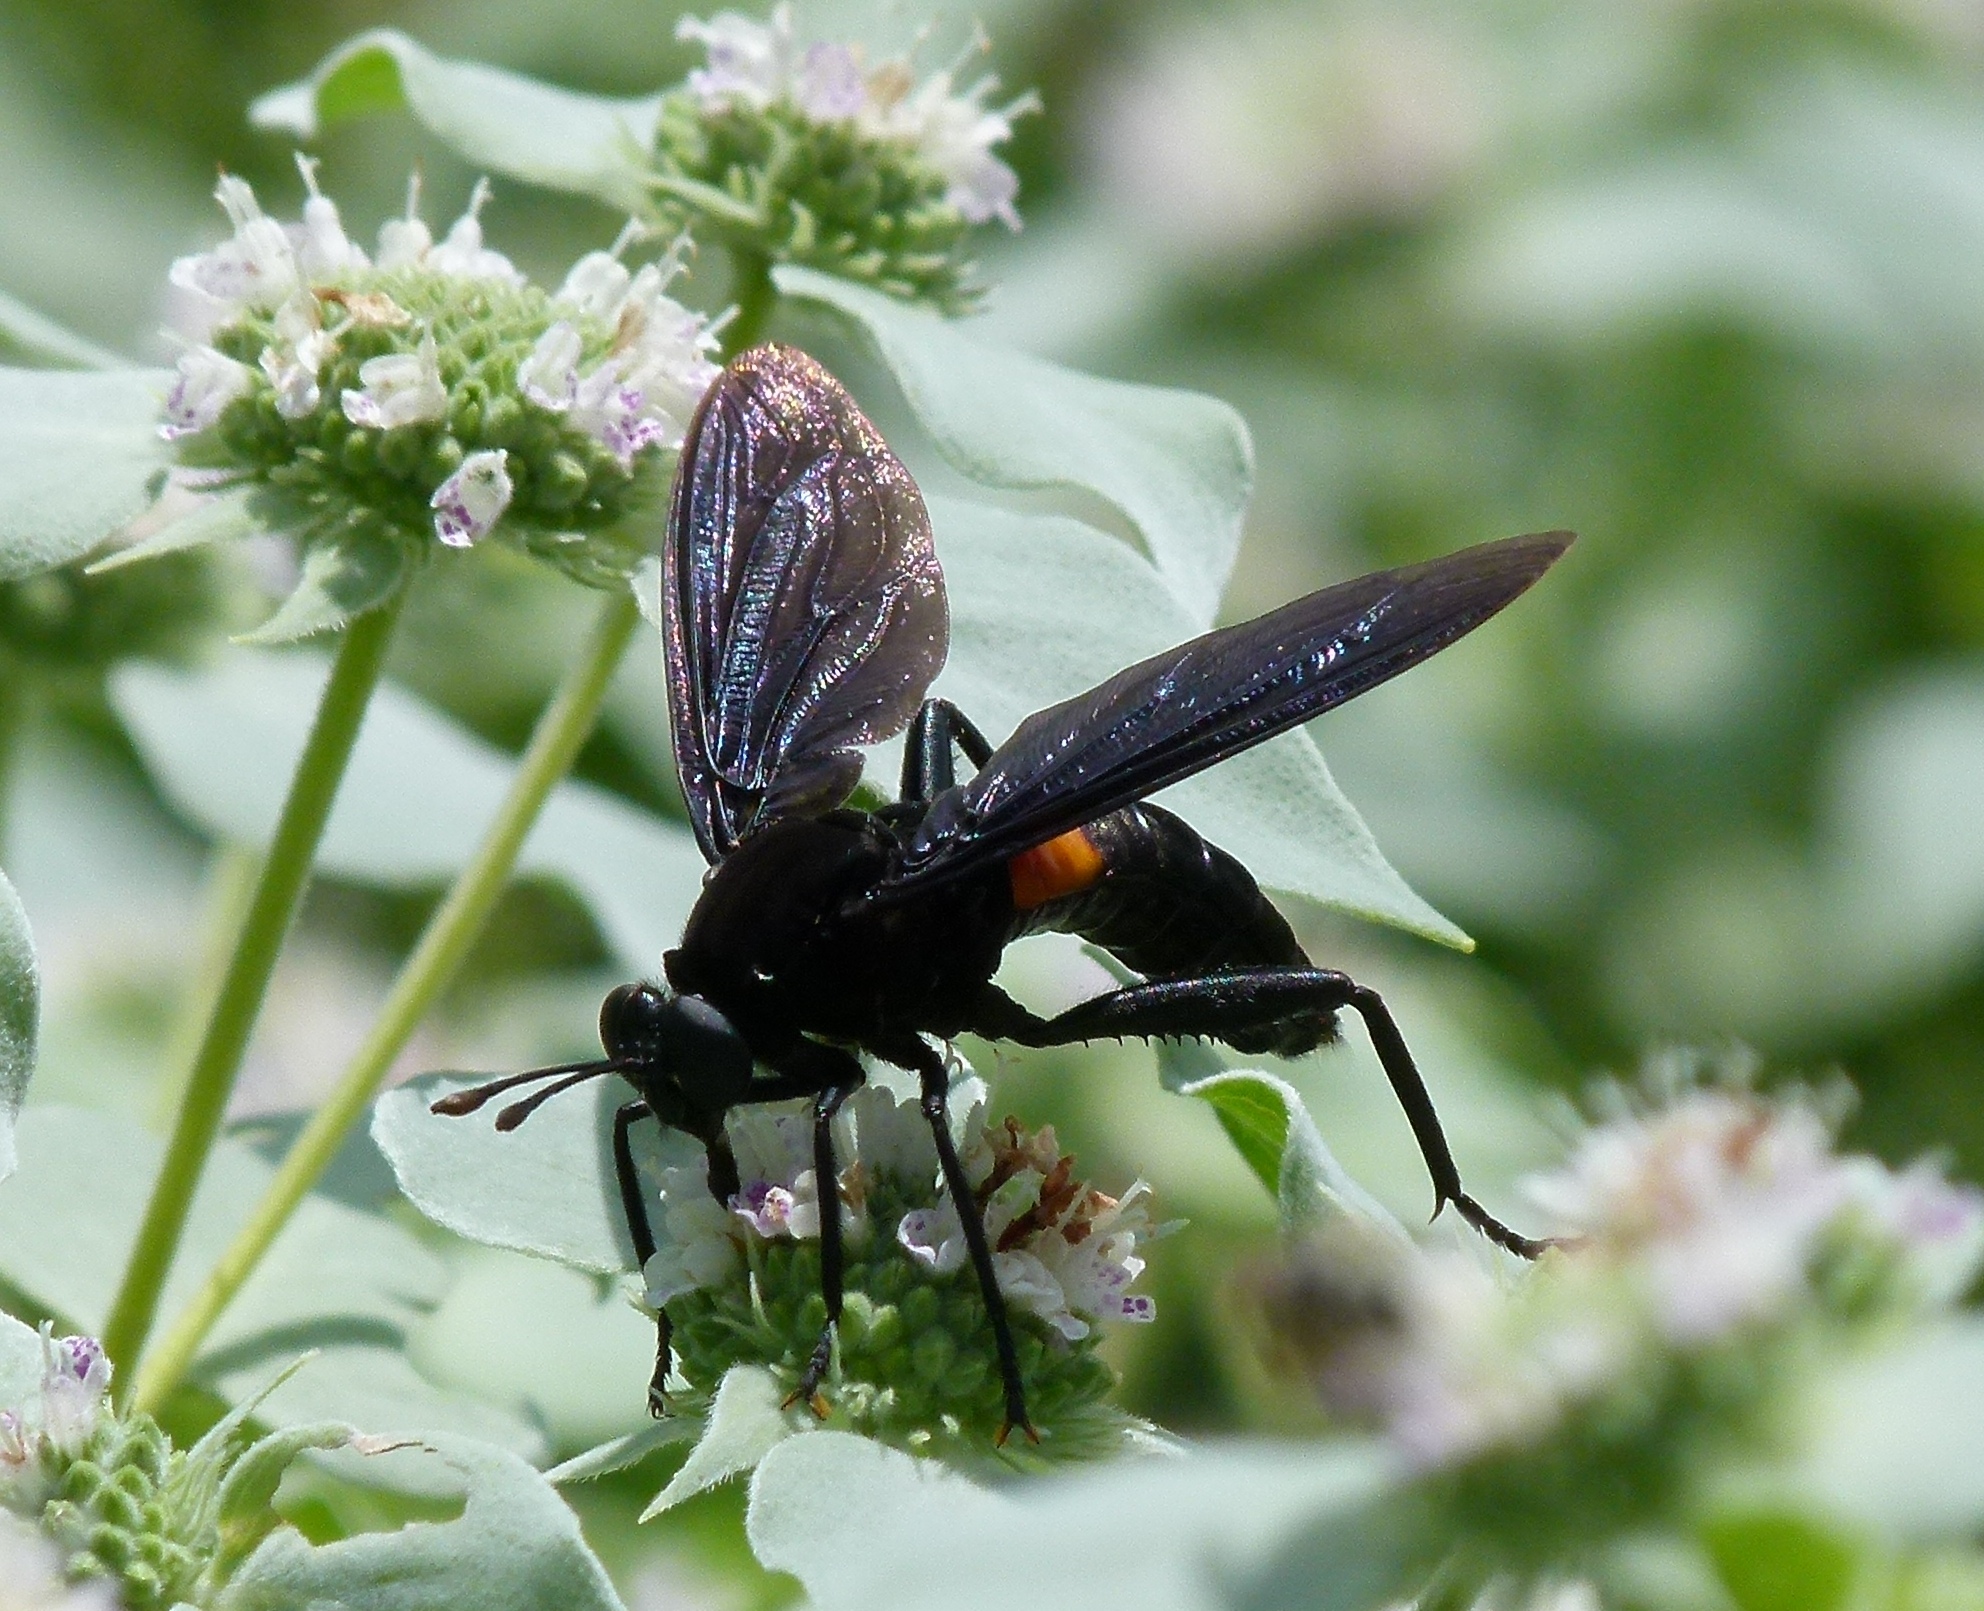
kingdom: Animalia
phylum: Arthropoda
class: Insecta
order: Diptera
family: Mydidae
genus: Mydas
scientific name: Mydas clavatus
